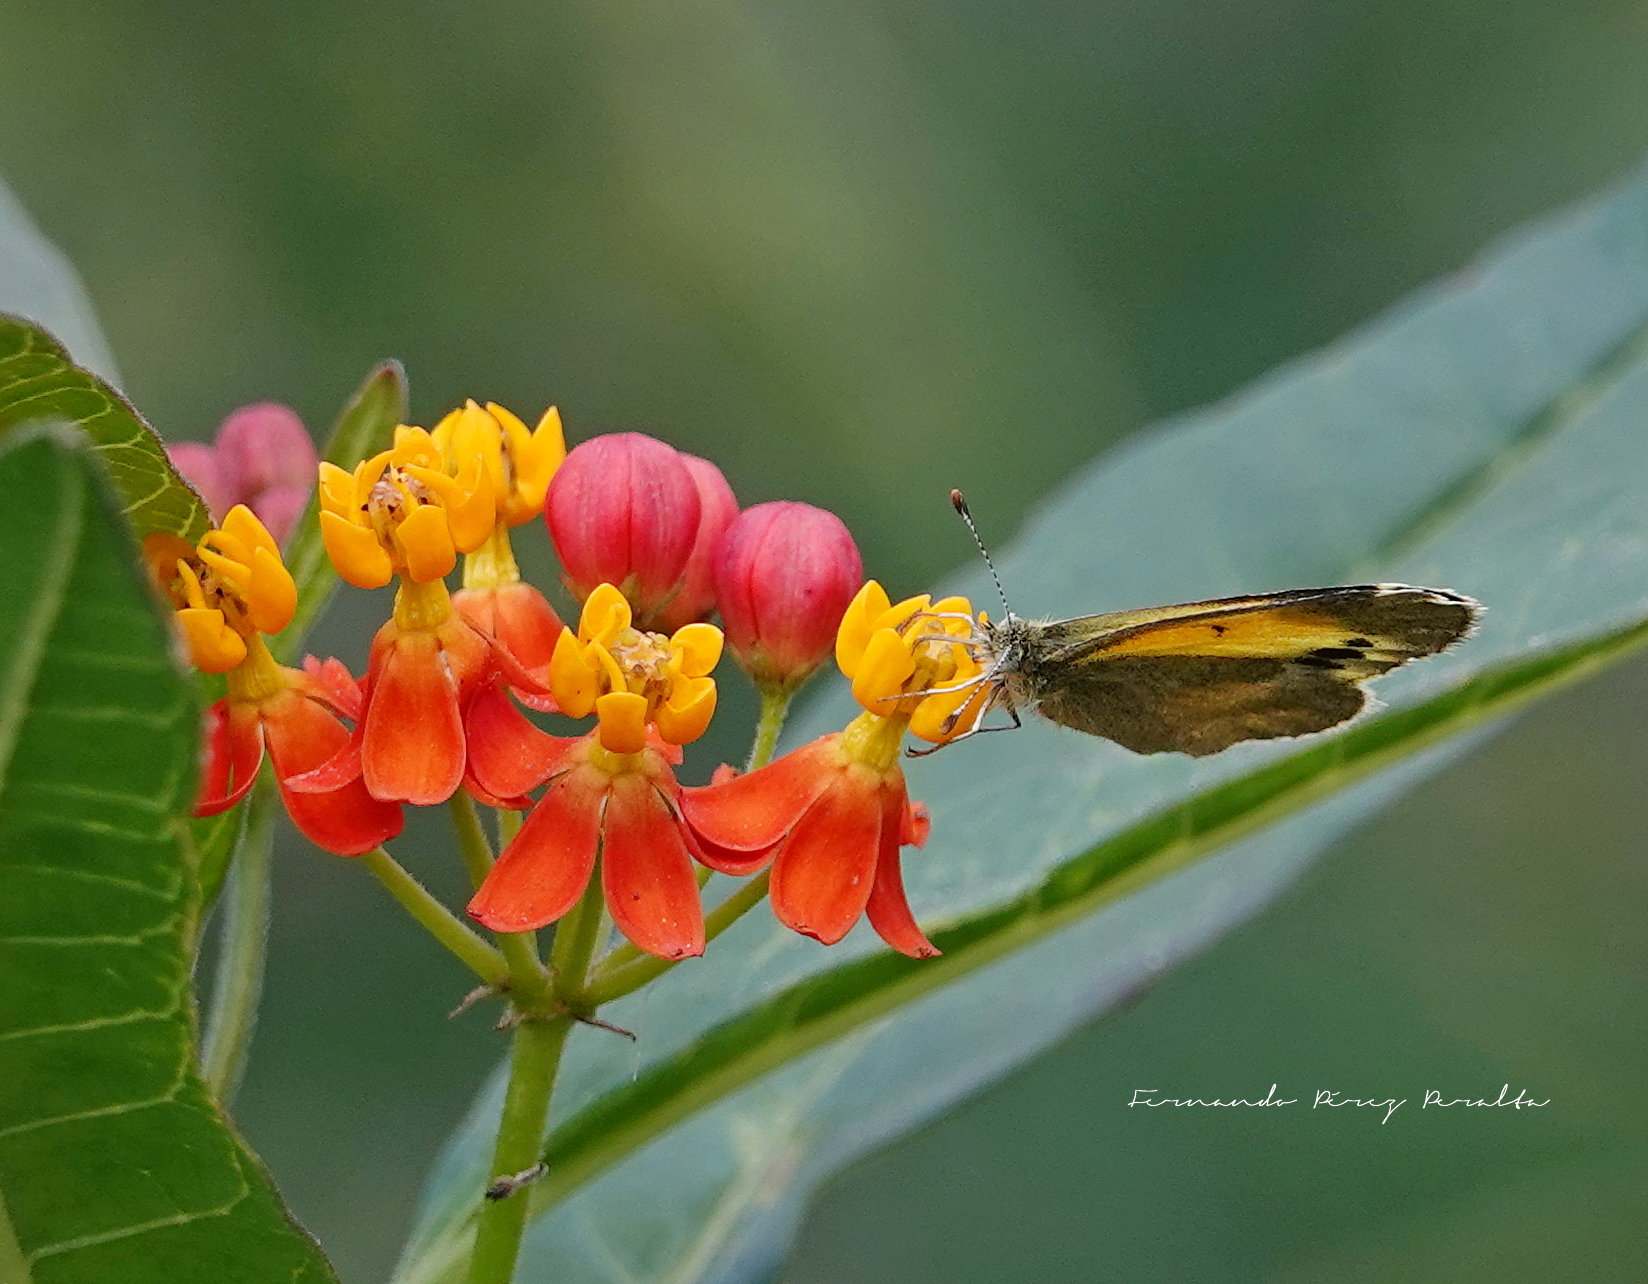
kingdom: Animalia
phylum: Arthropoda
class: Insecta
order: Lepidoptera
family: Pieridae
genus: Nathalis
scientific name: Nathalis iole
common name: Dainty sulphur
